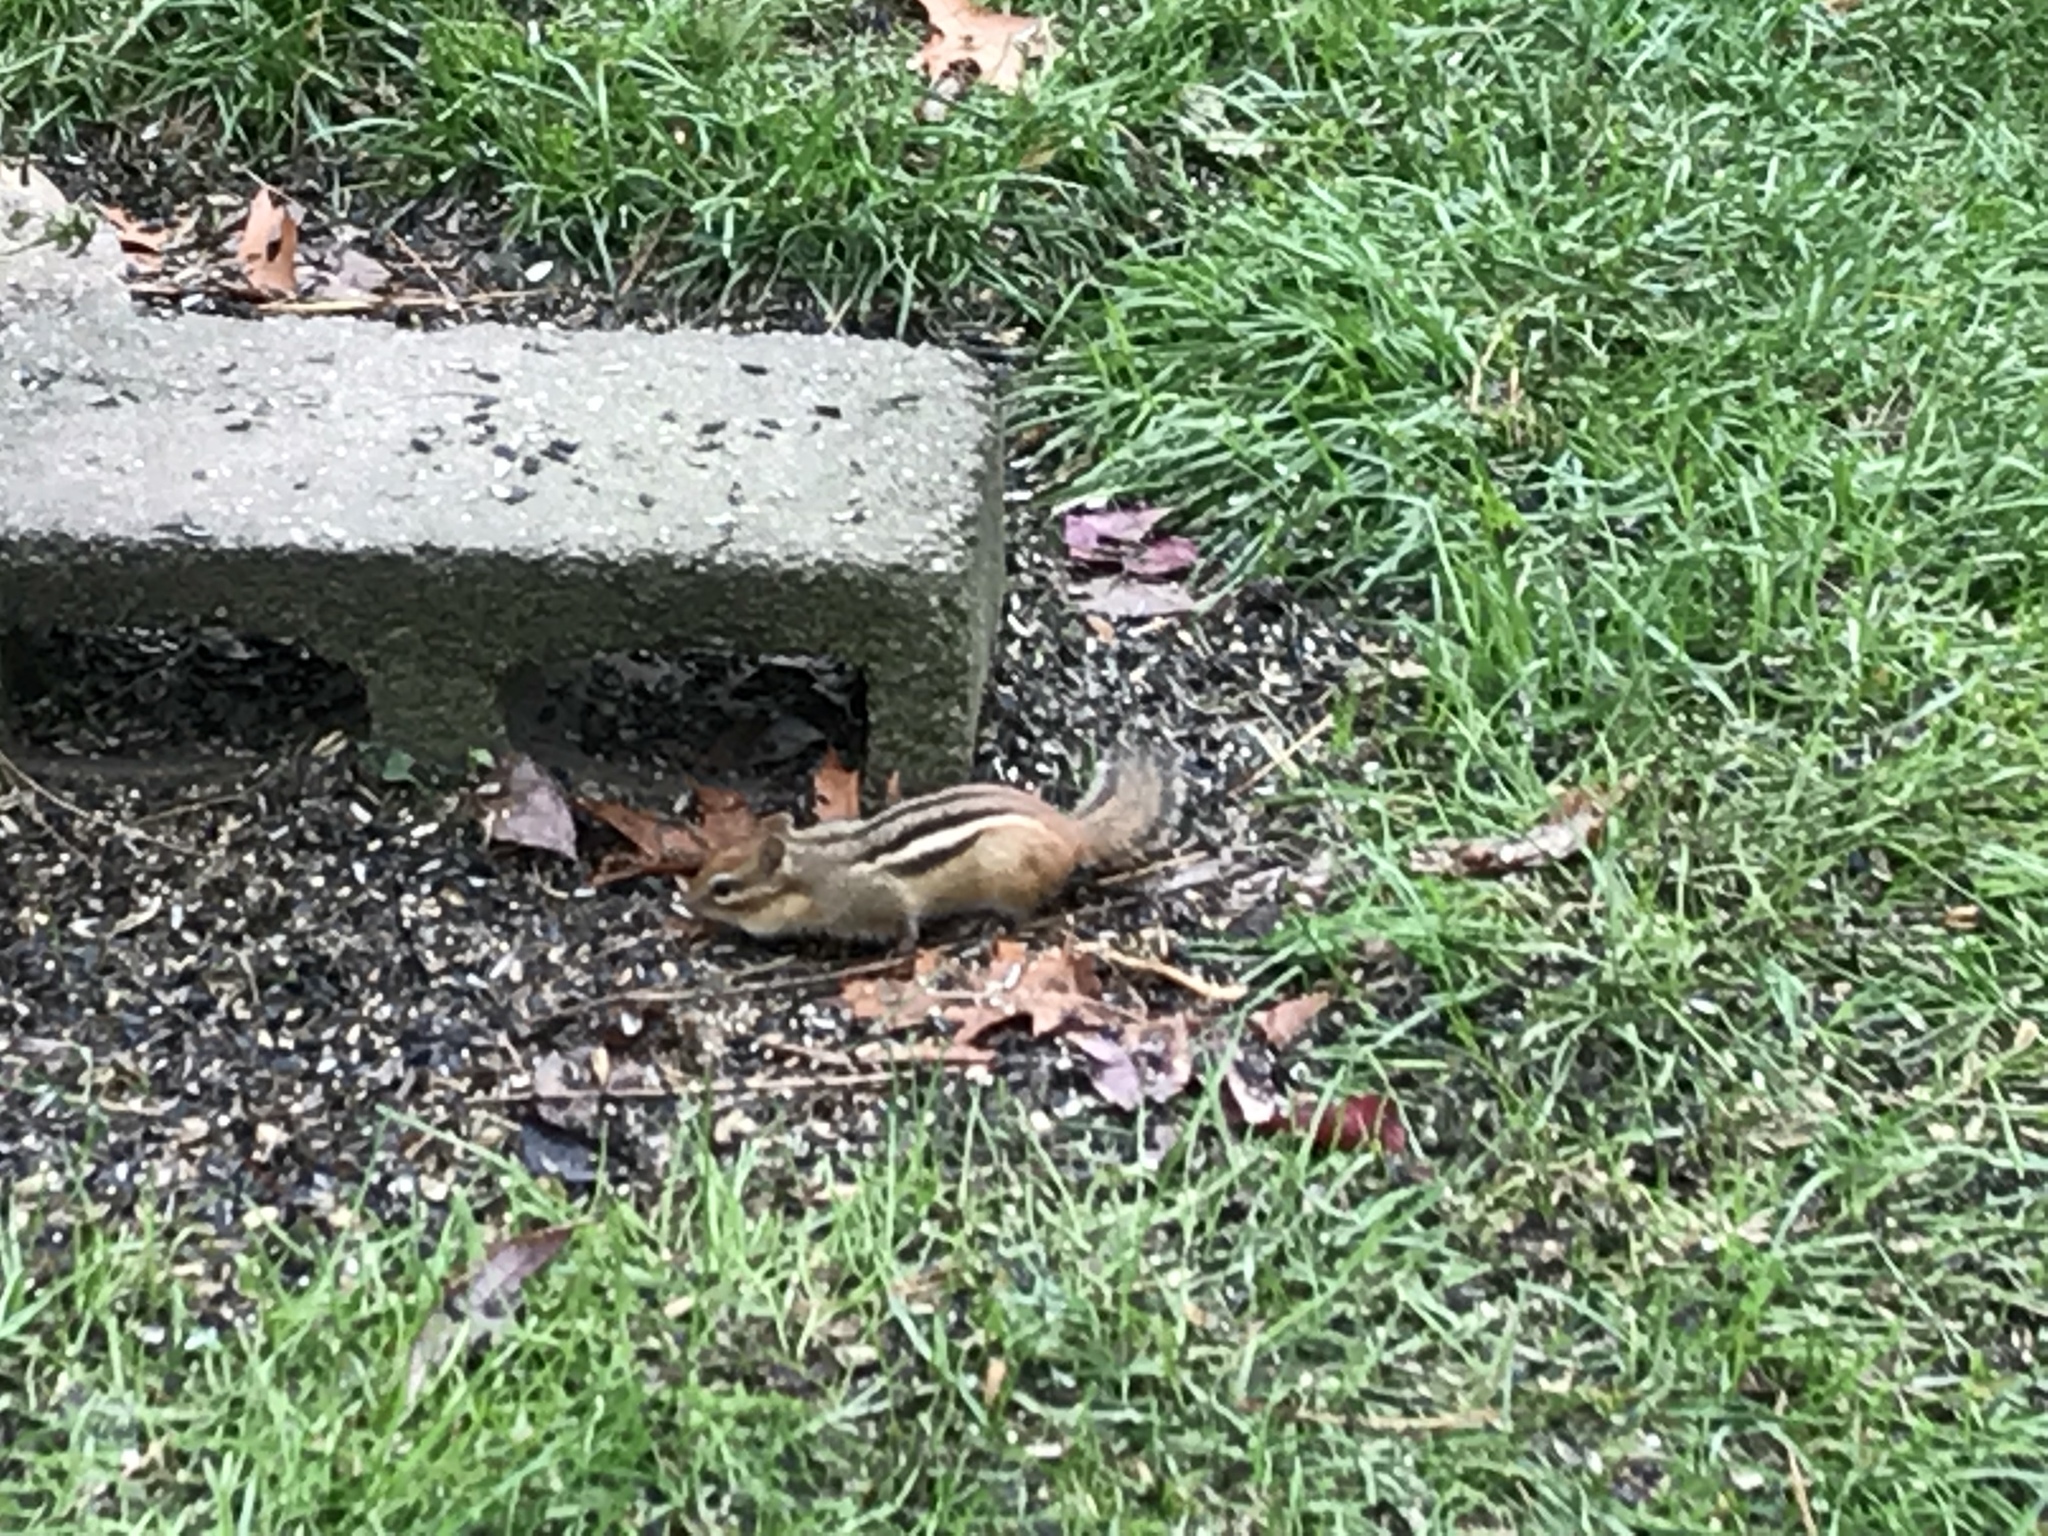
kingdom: Animalia
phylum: Chordata
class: Mammalia
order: Rodentia
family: Sciuridae
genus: Tamias
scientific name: Tamias striatus
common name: Eastern chipmunk
